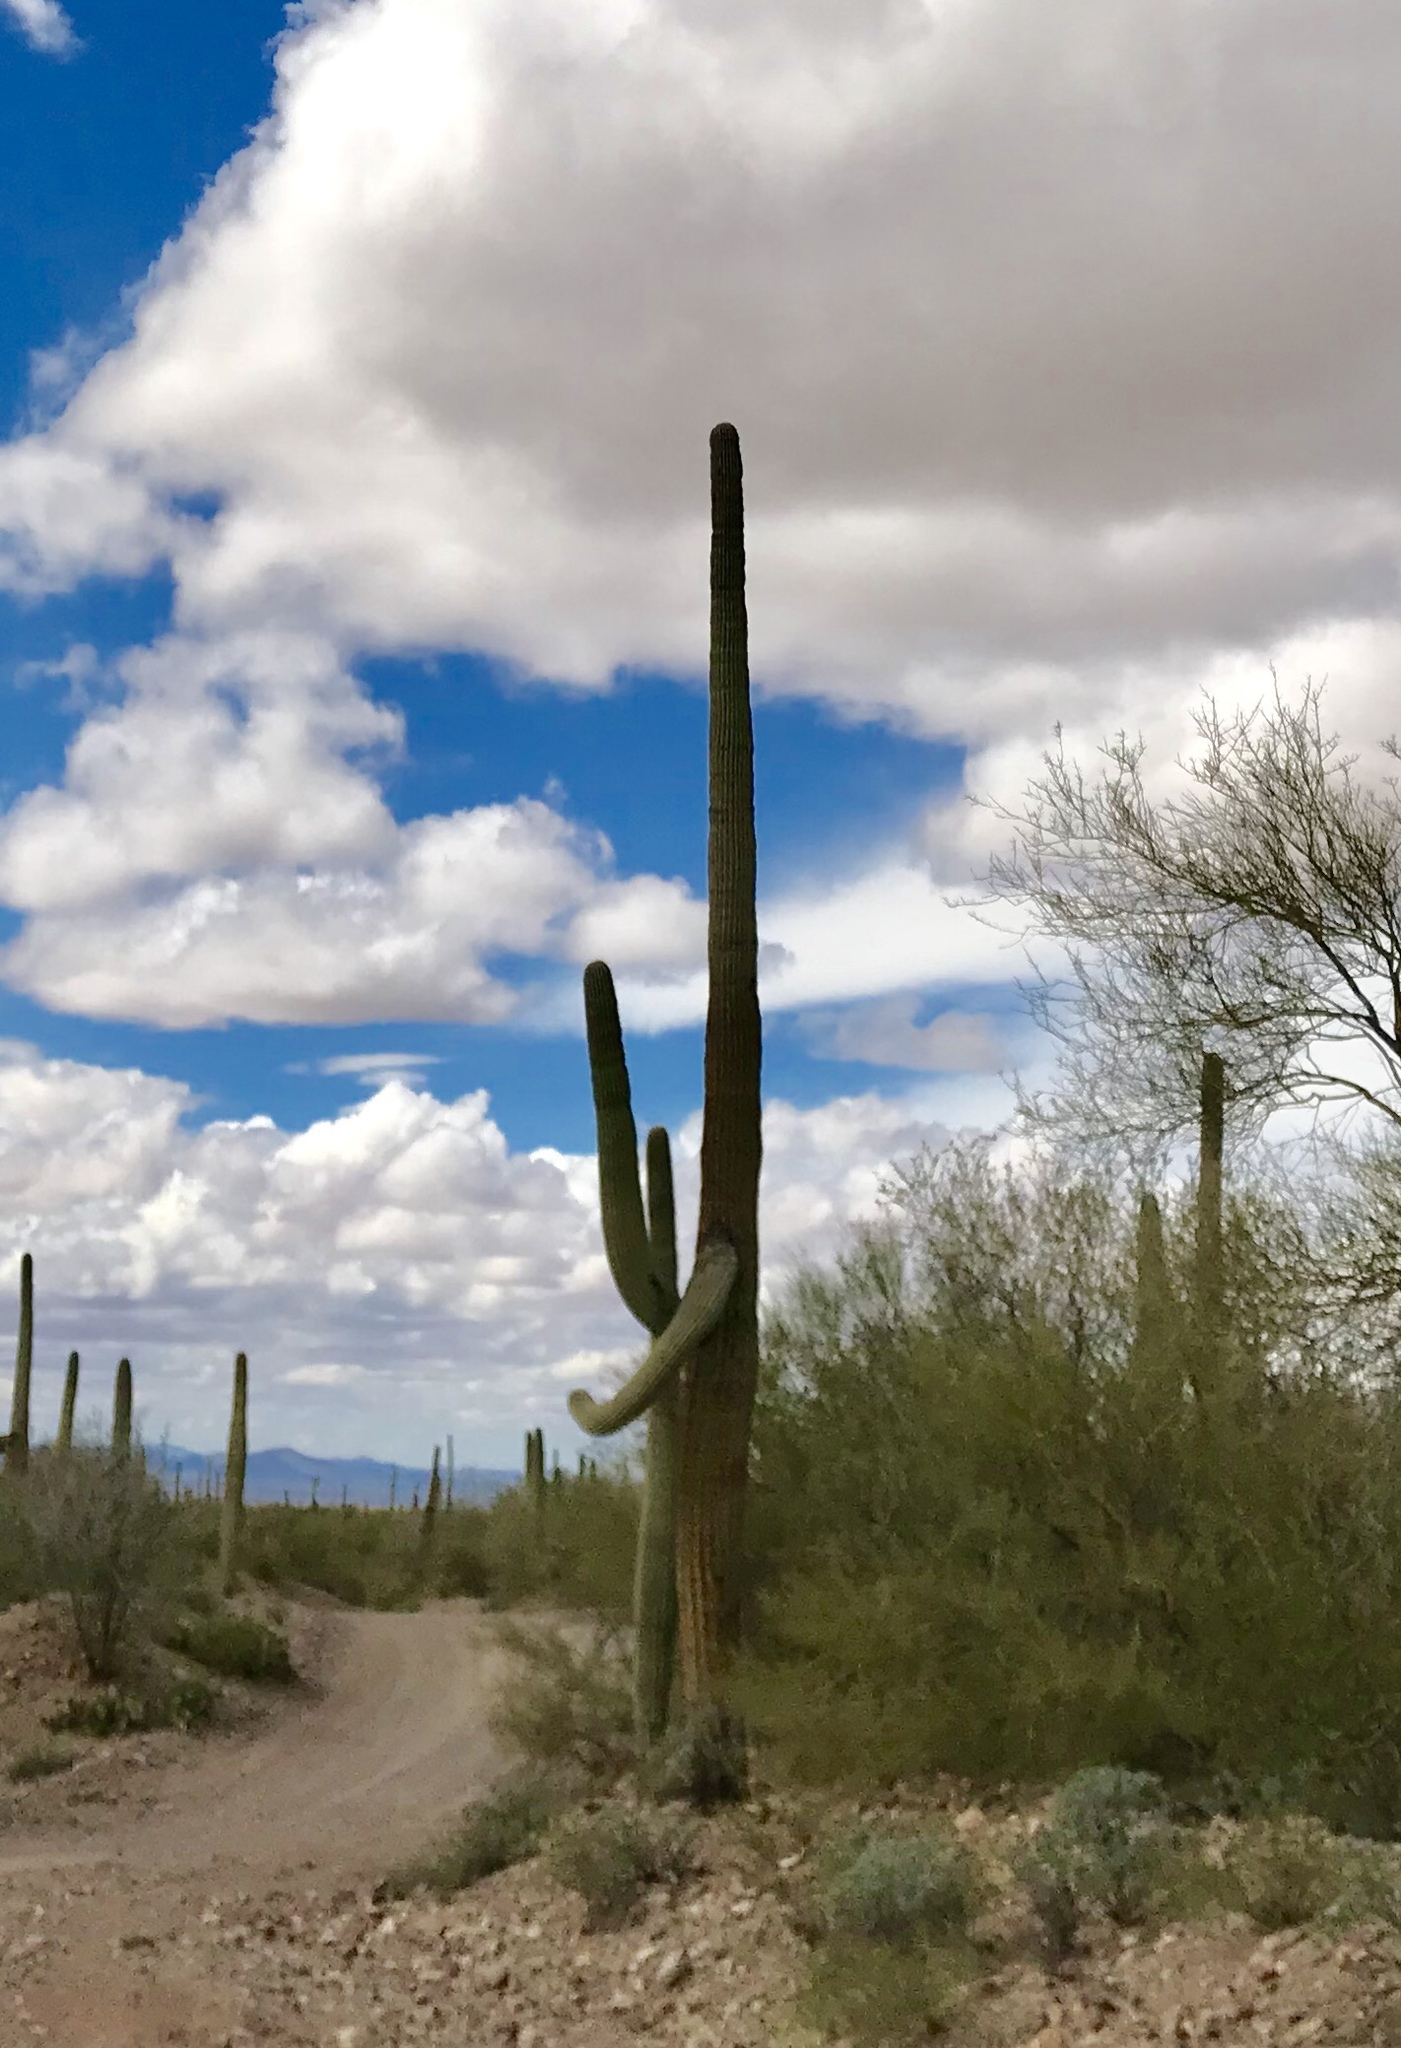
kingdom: Plantae
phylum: Tracheophyta
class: Magnoliopsida
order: Caryophyllales
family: Cactaceae
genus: Carnegiea
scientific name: Carnegiea gigantea
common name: Saguaro
